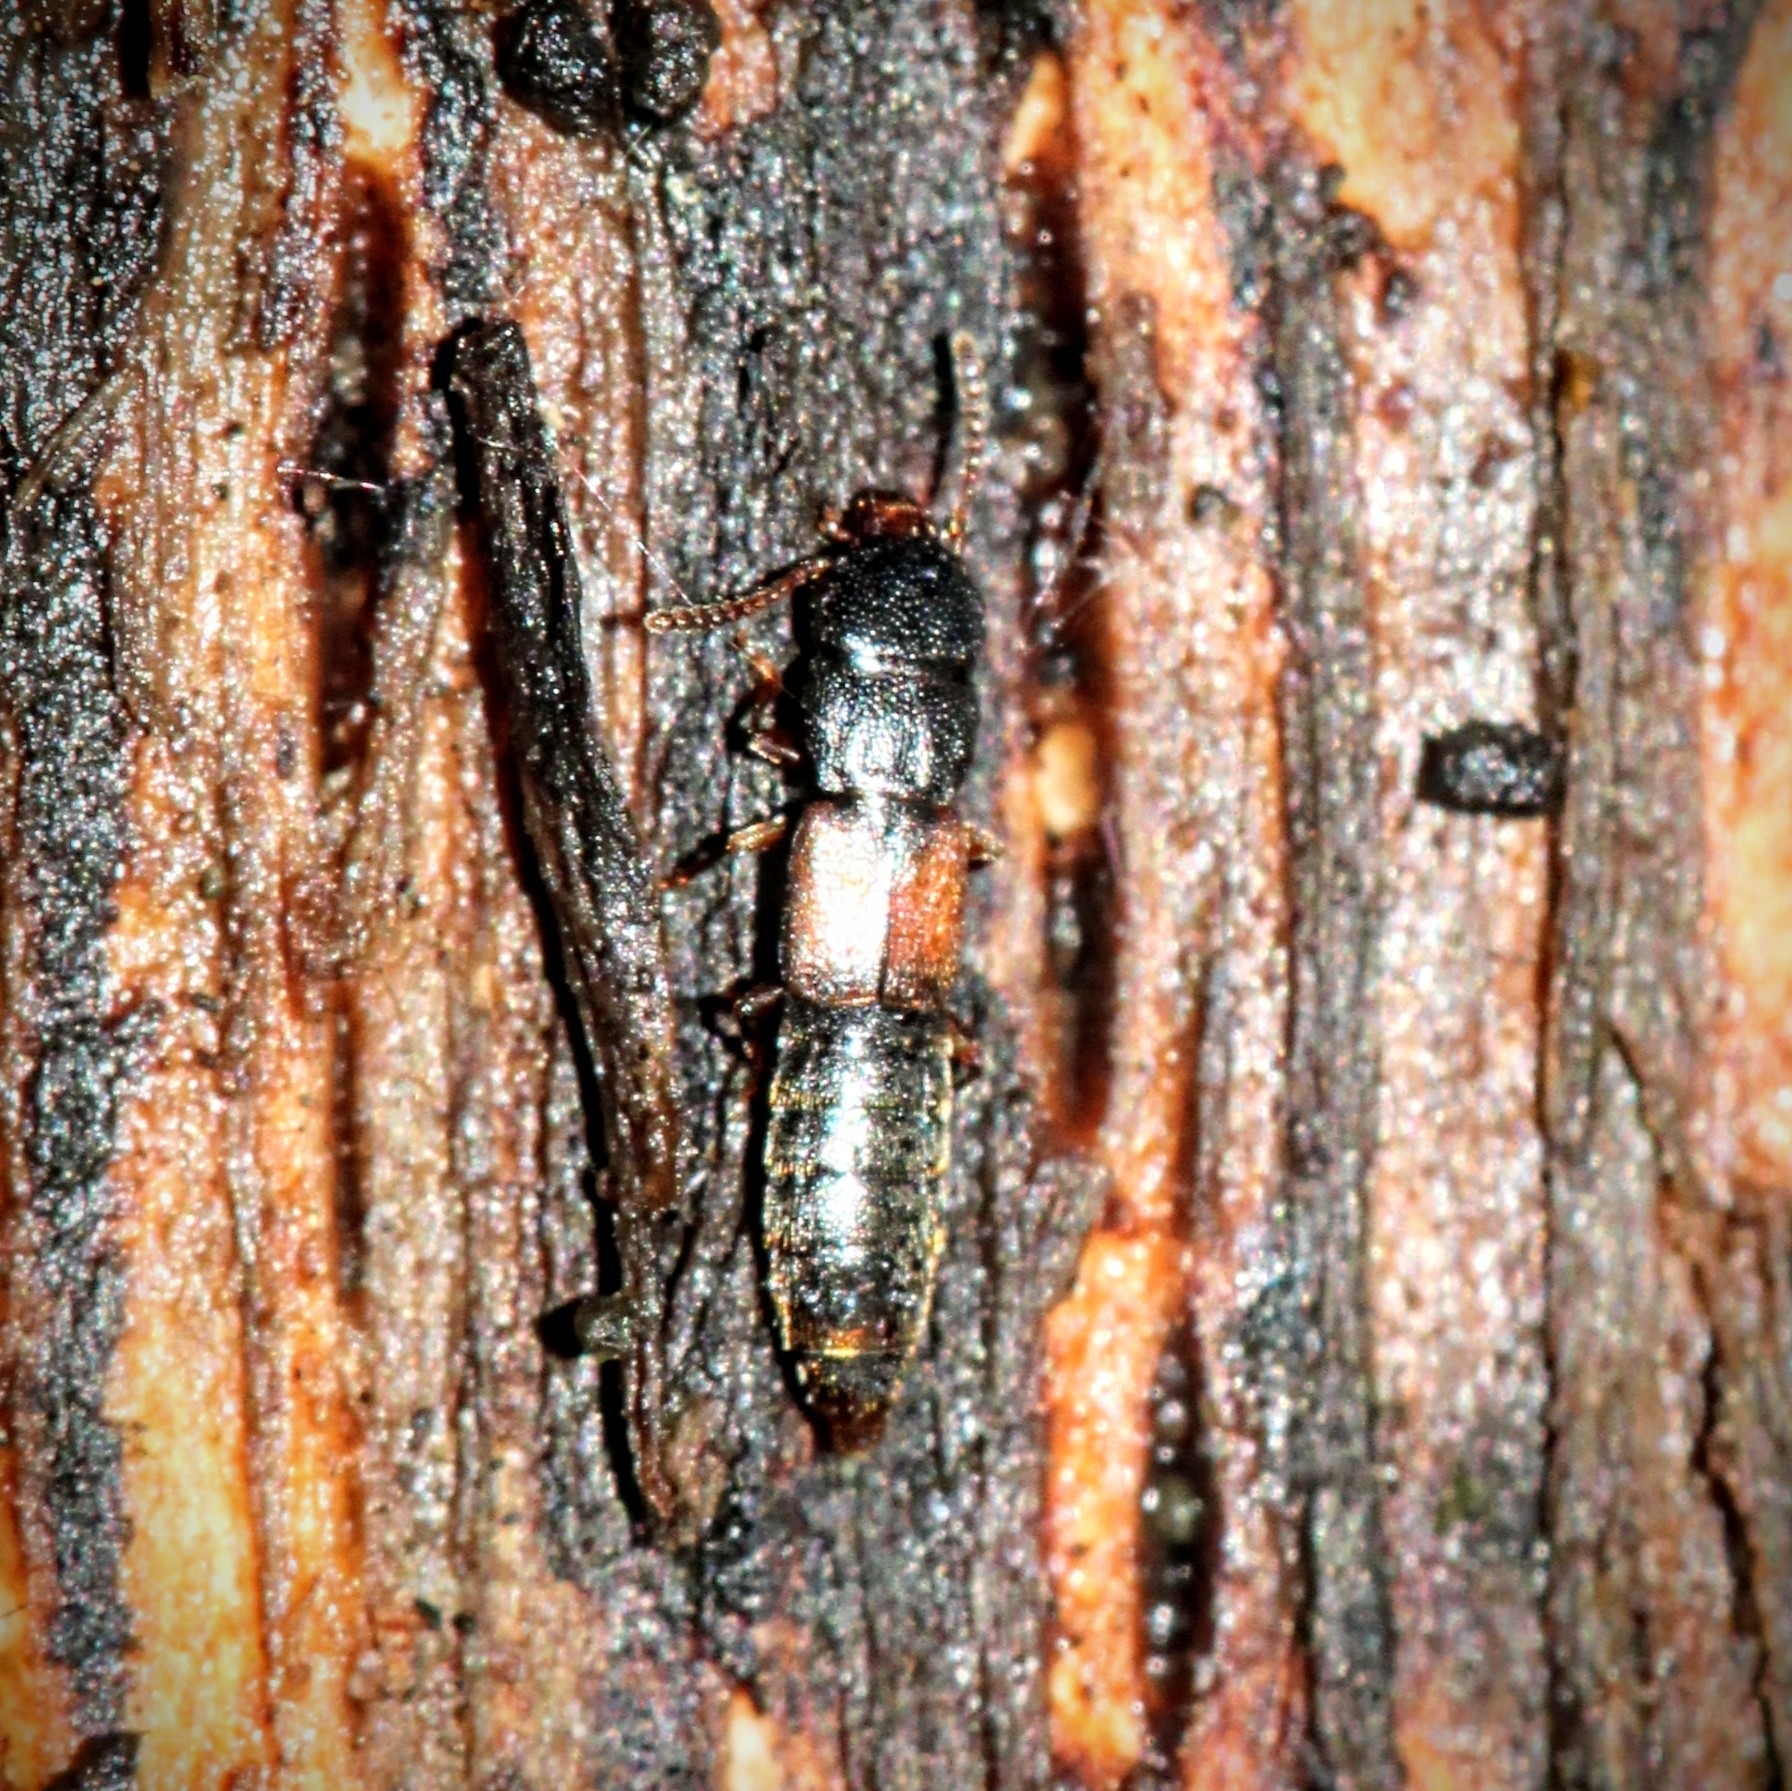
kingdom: Animalia
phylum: Arthropoda
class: Insecta
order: Coleoptera
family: Staphylinidae
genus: Charhyphus
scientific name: Charhyphus picipennis
